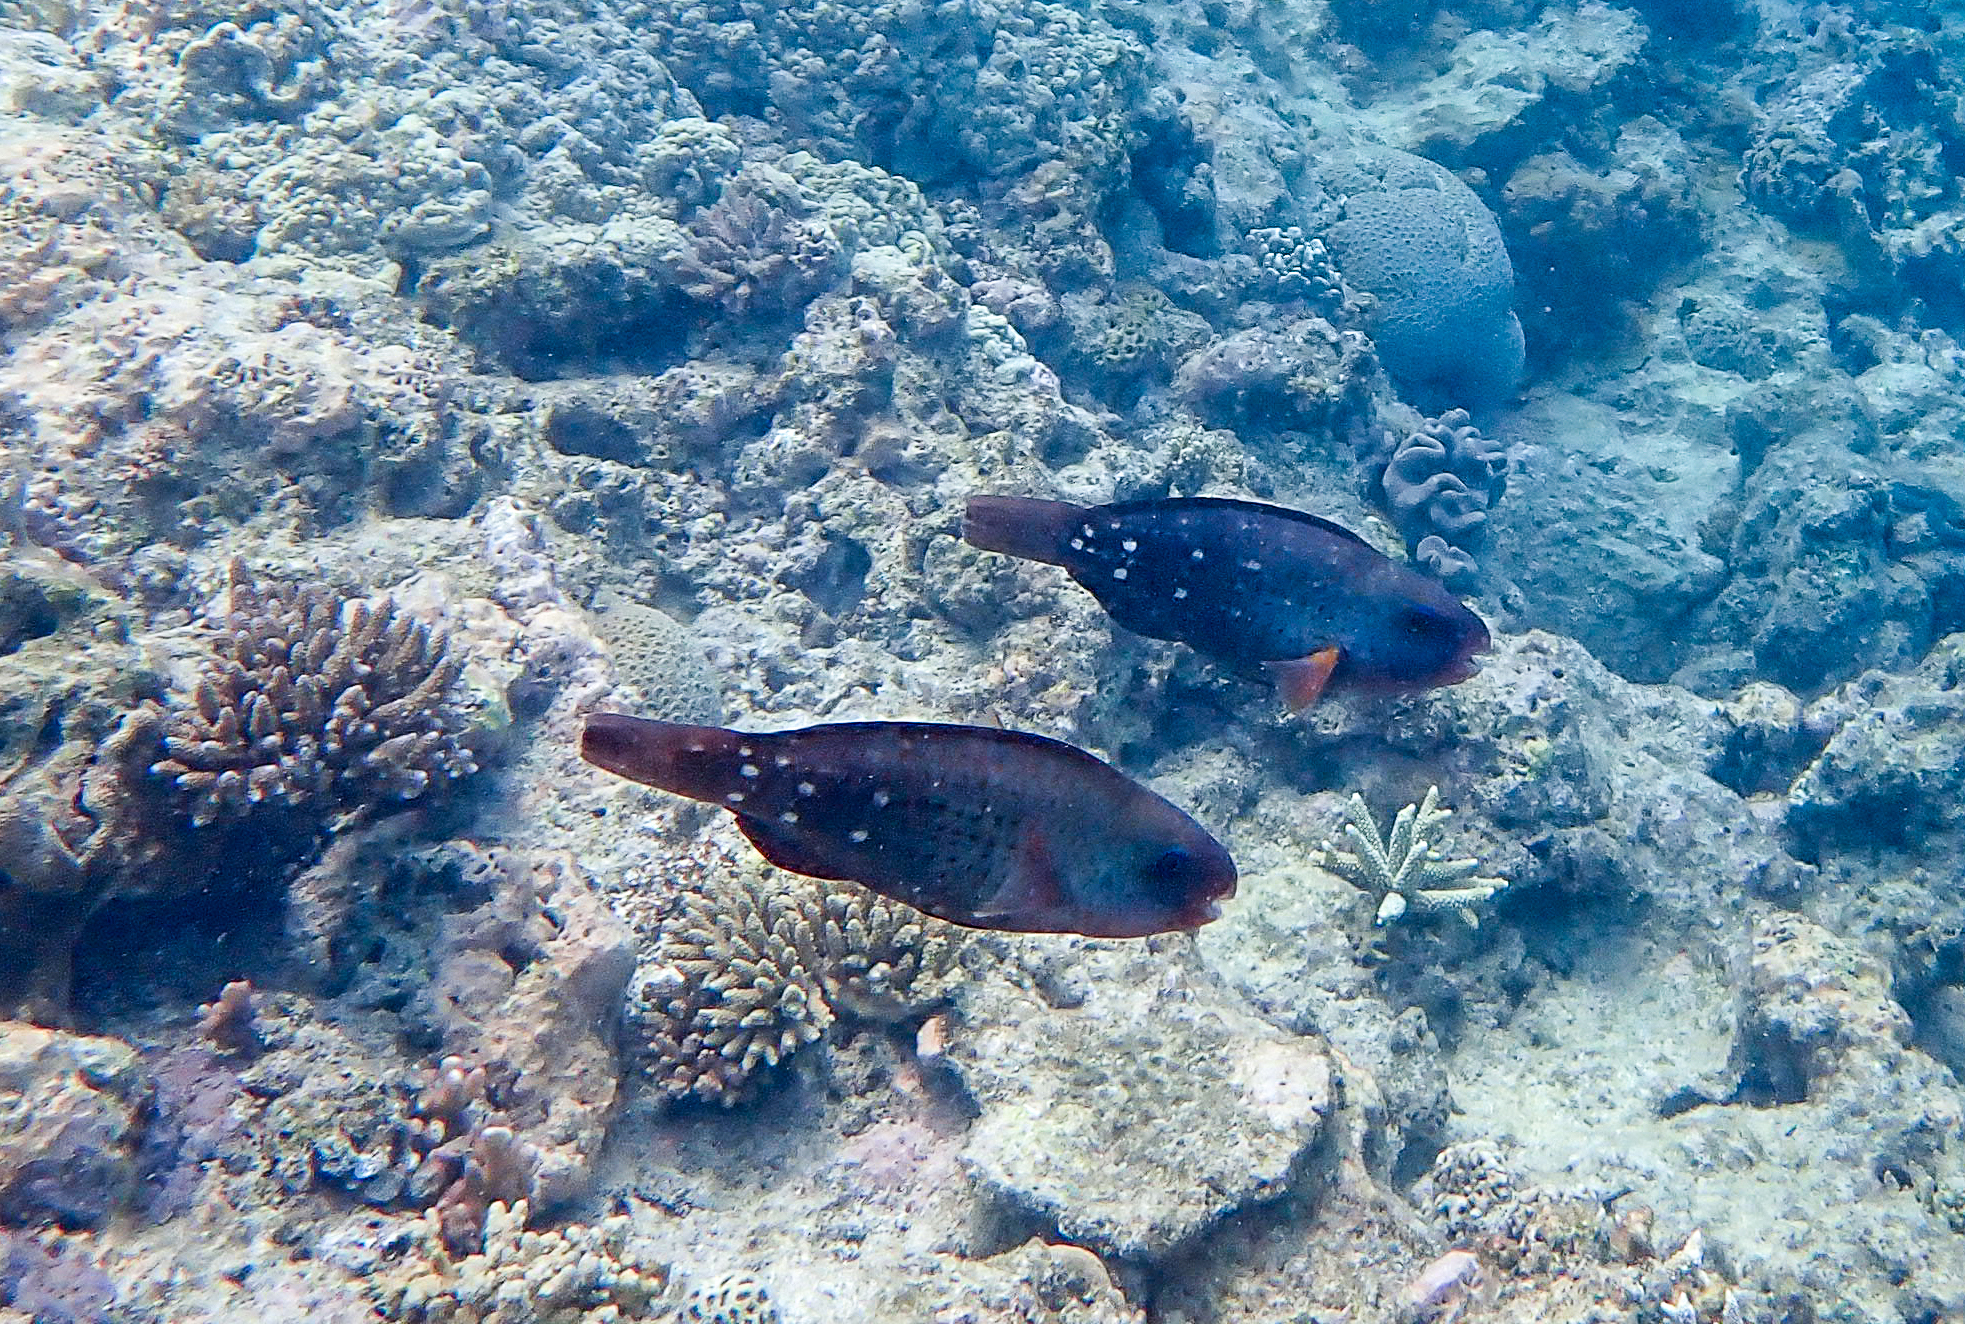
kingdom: Animalia
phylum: Chordata
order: Perciformes
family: Scaridae
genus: Chlorurus
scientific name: Chlorurus spilurus
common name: Bullethead parrotfish
